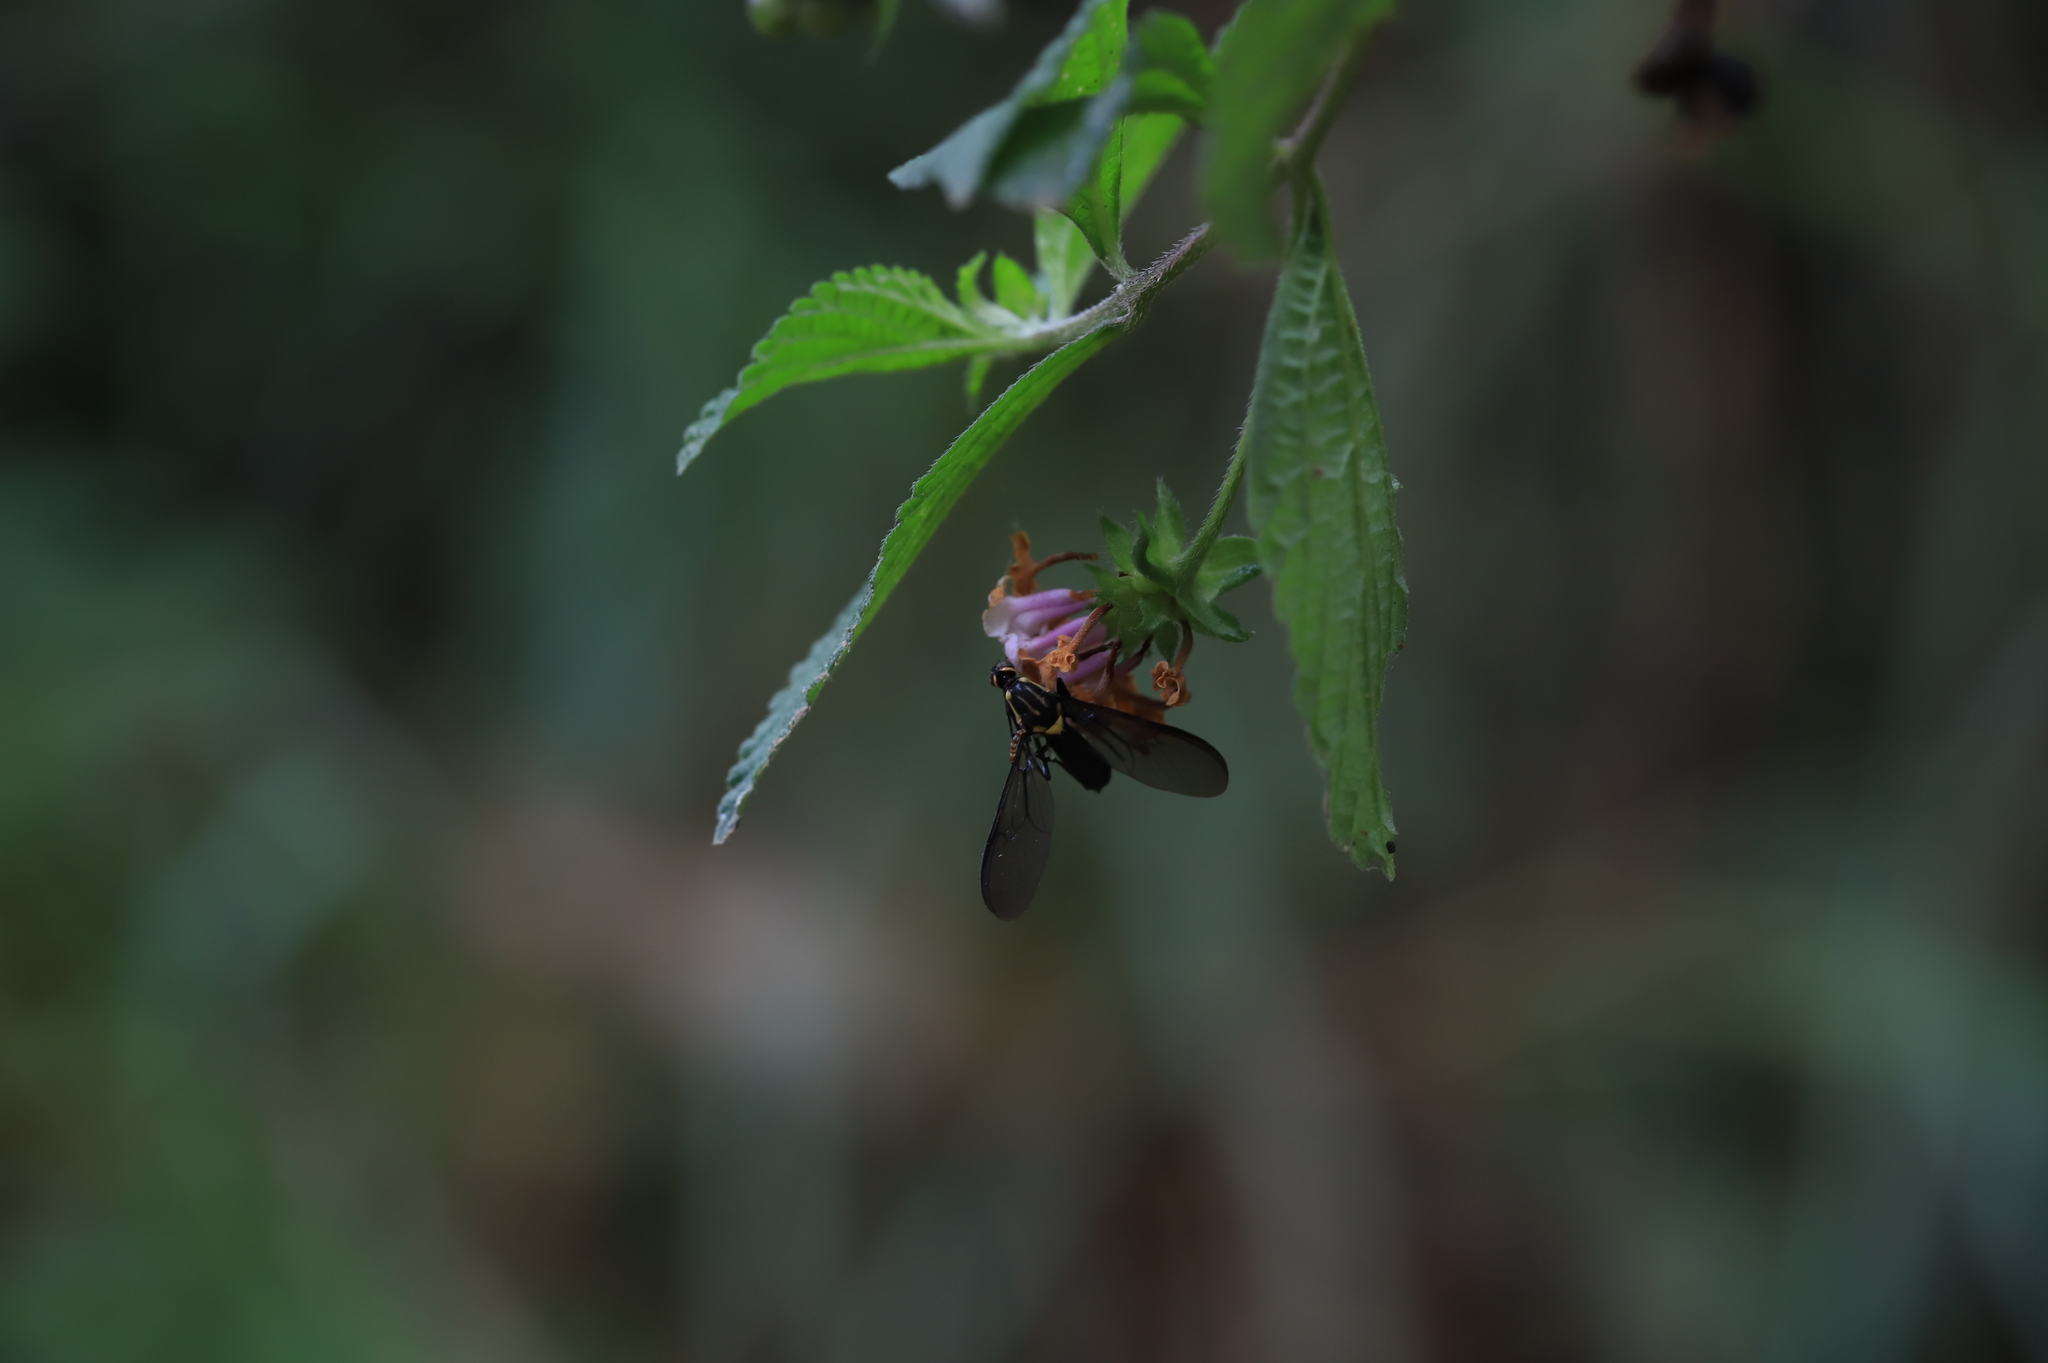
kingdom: Animalia
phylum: Arthropoda
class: Insecta
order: Diptera
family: Stratiomyidae
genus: Raphiocera
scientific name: Raphiocera ornata
